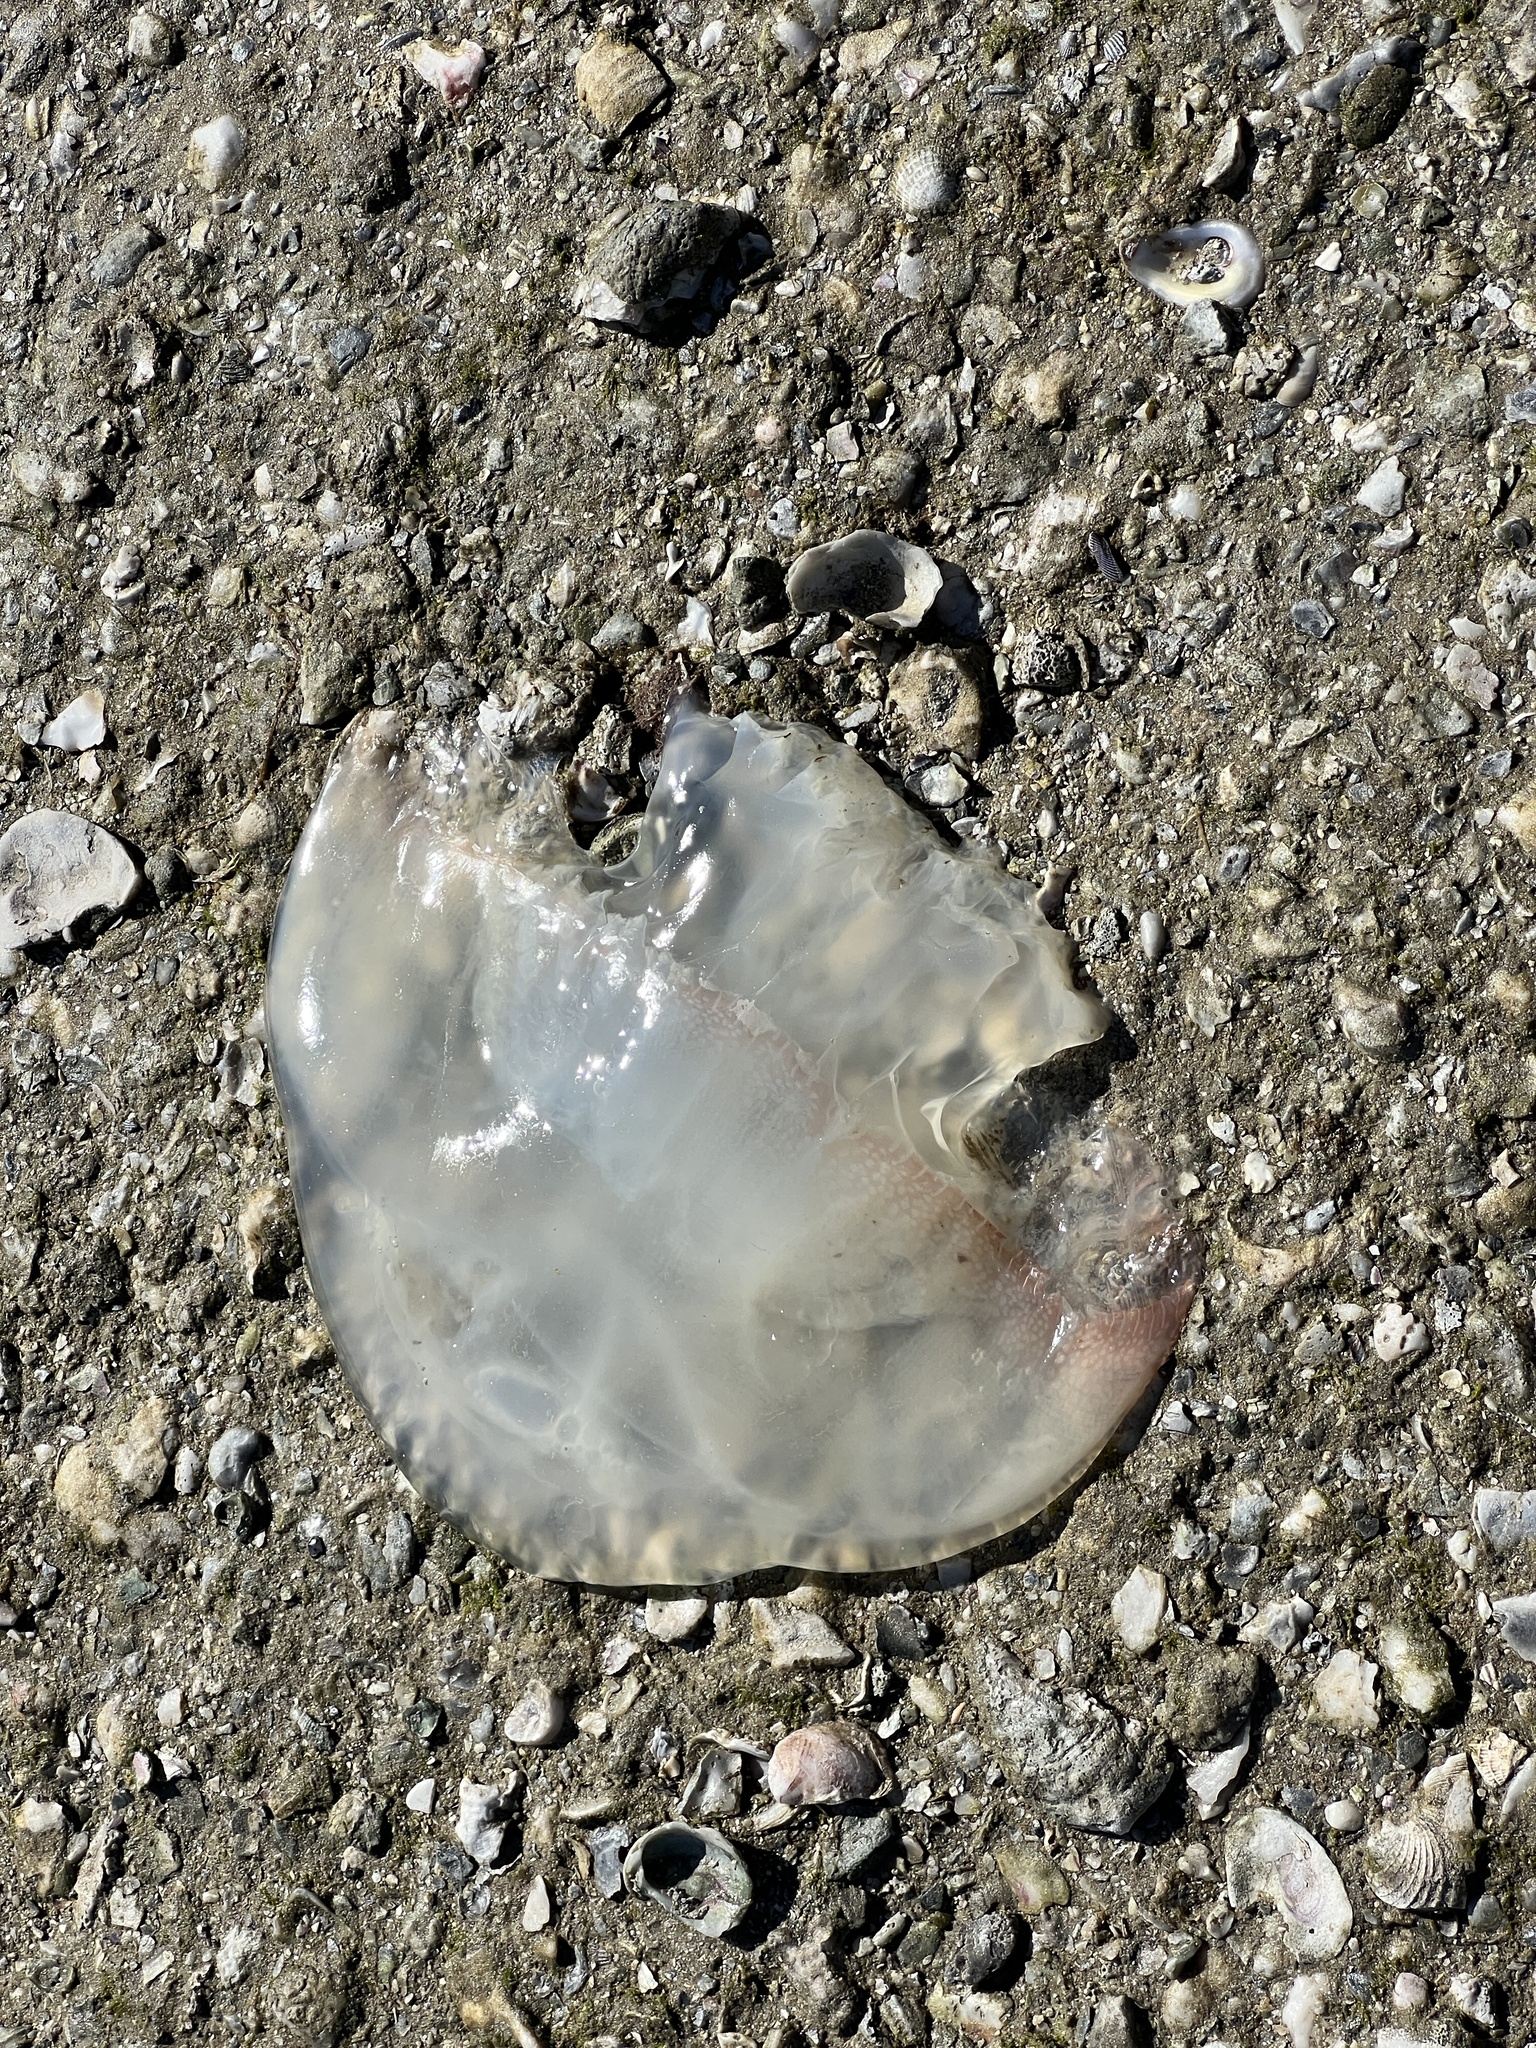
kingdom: Animalia
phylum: Cnidaria
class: Scyphozoa
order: Rhizostomeae
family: Stomolophidae
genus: Stomolophus
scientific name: Stomolophus meleagris
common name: Cabbagehead
